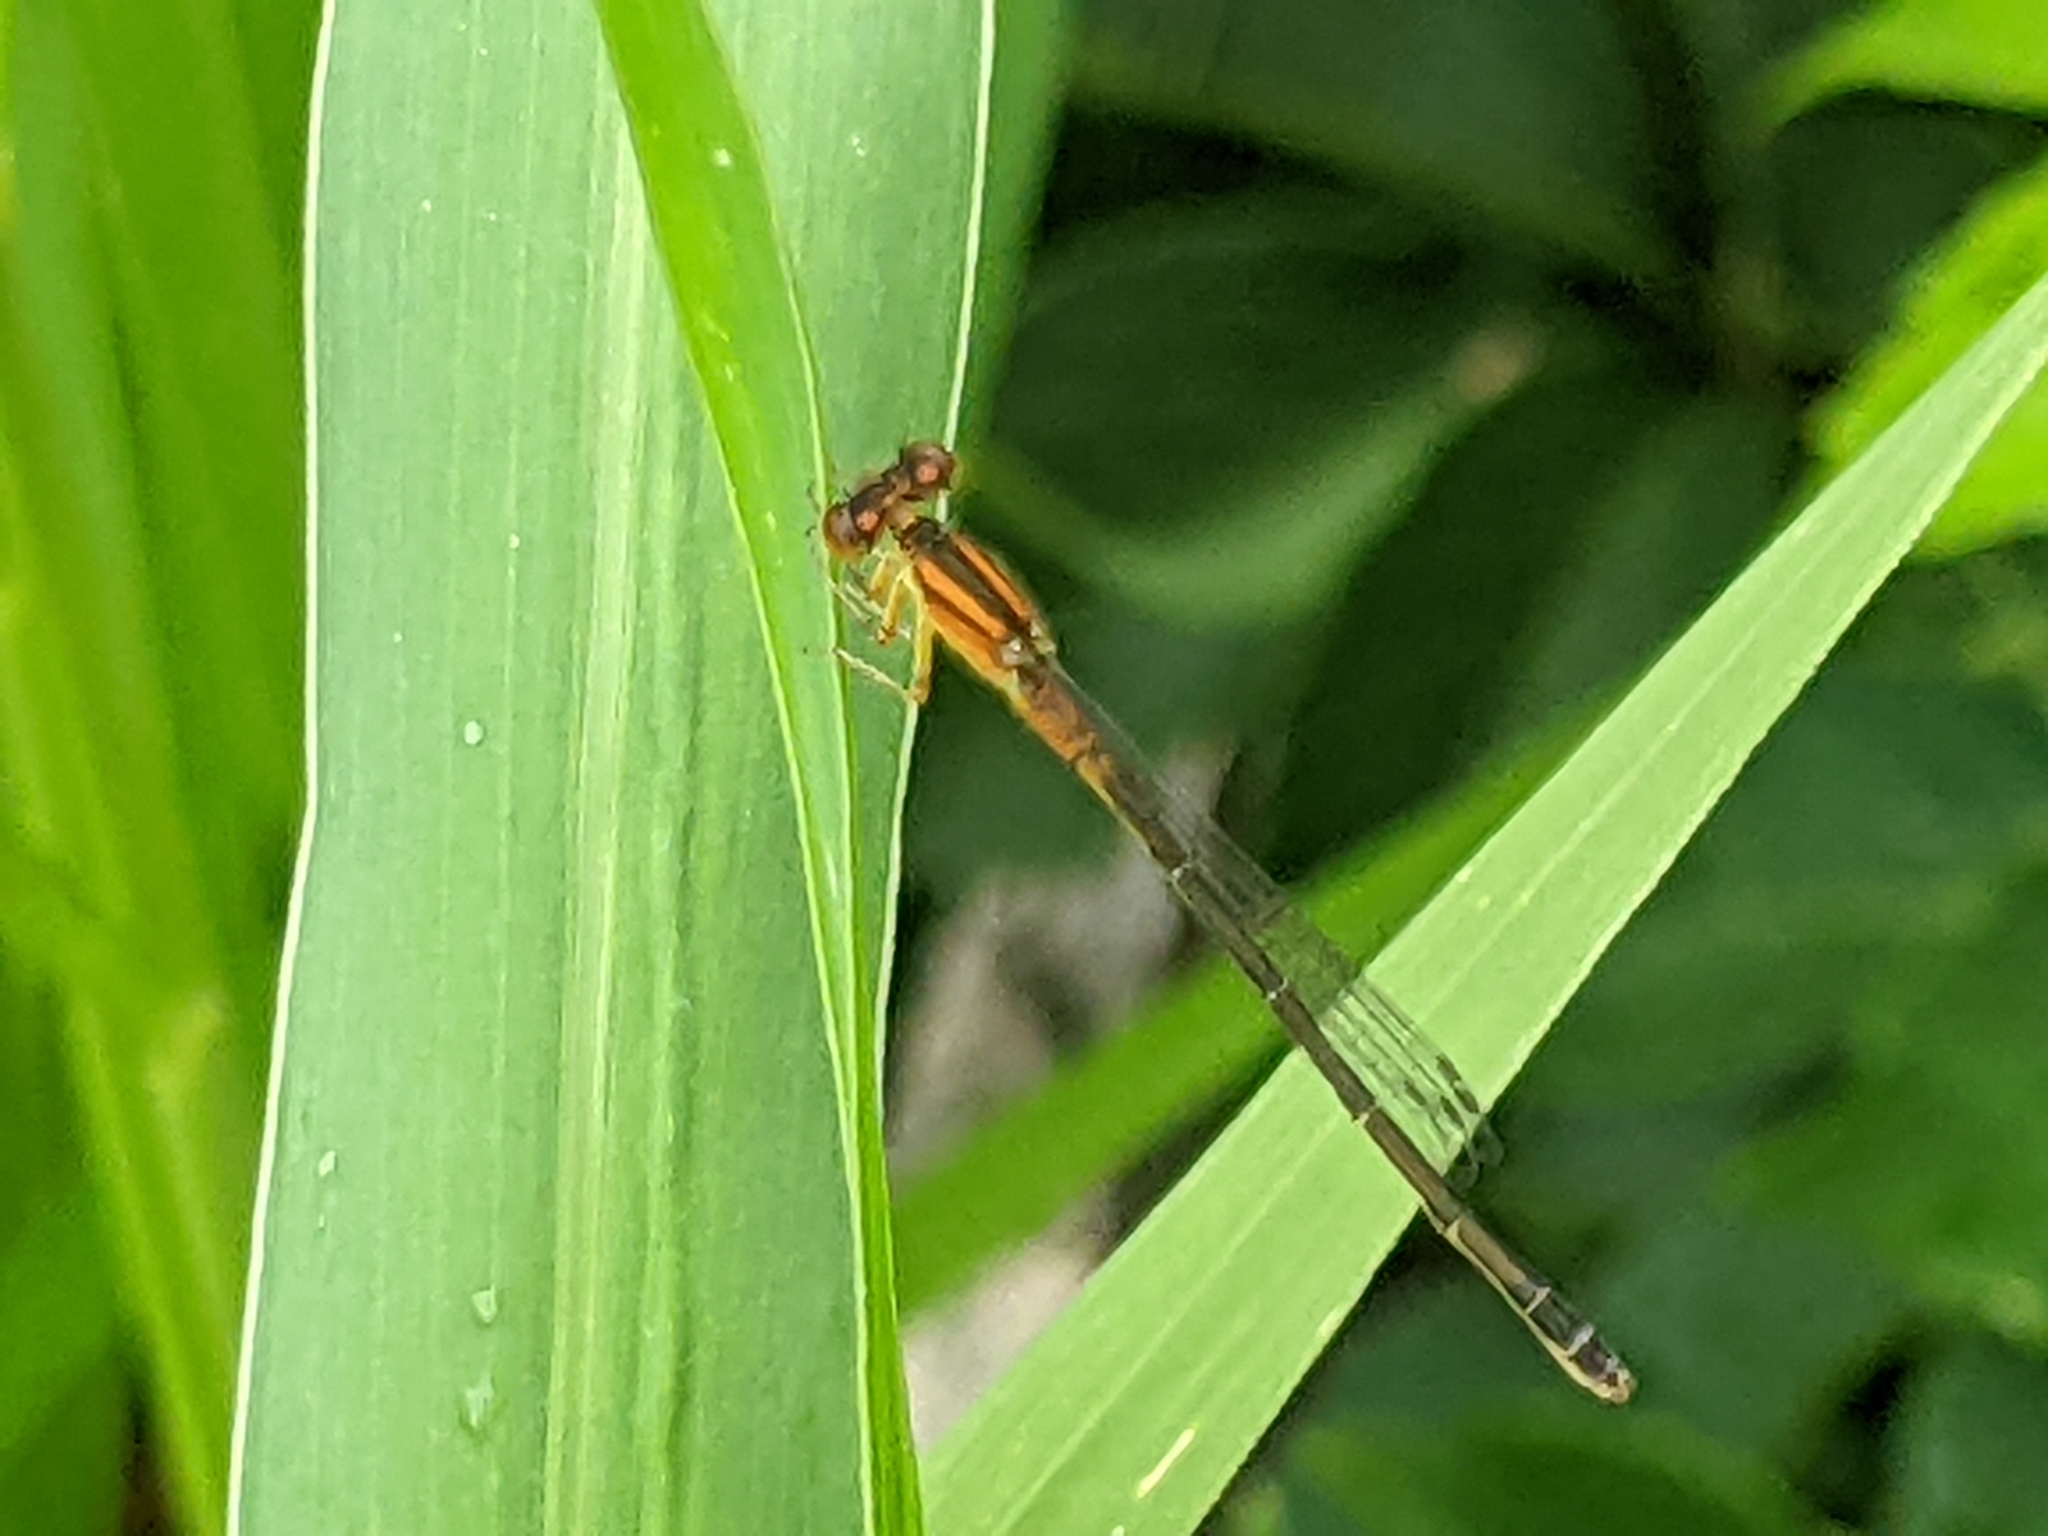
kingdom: Animalia
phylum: Arthropoda
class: Insecta
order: Odonata
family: Coenagrionidae
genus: Ischnura
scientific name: Ischnura verticalis
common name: Eastern forktail
